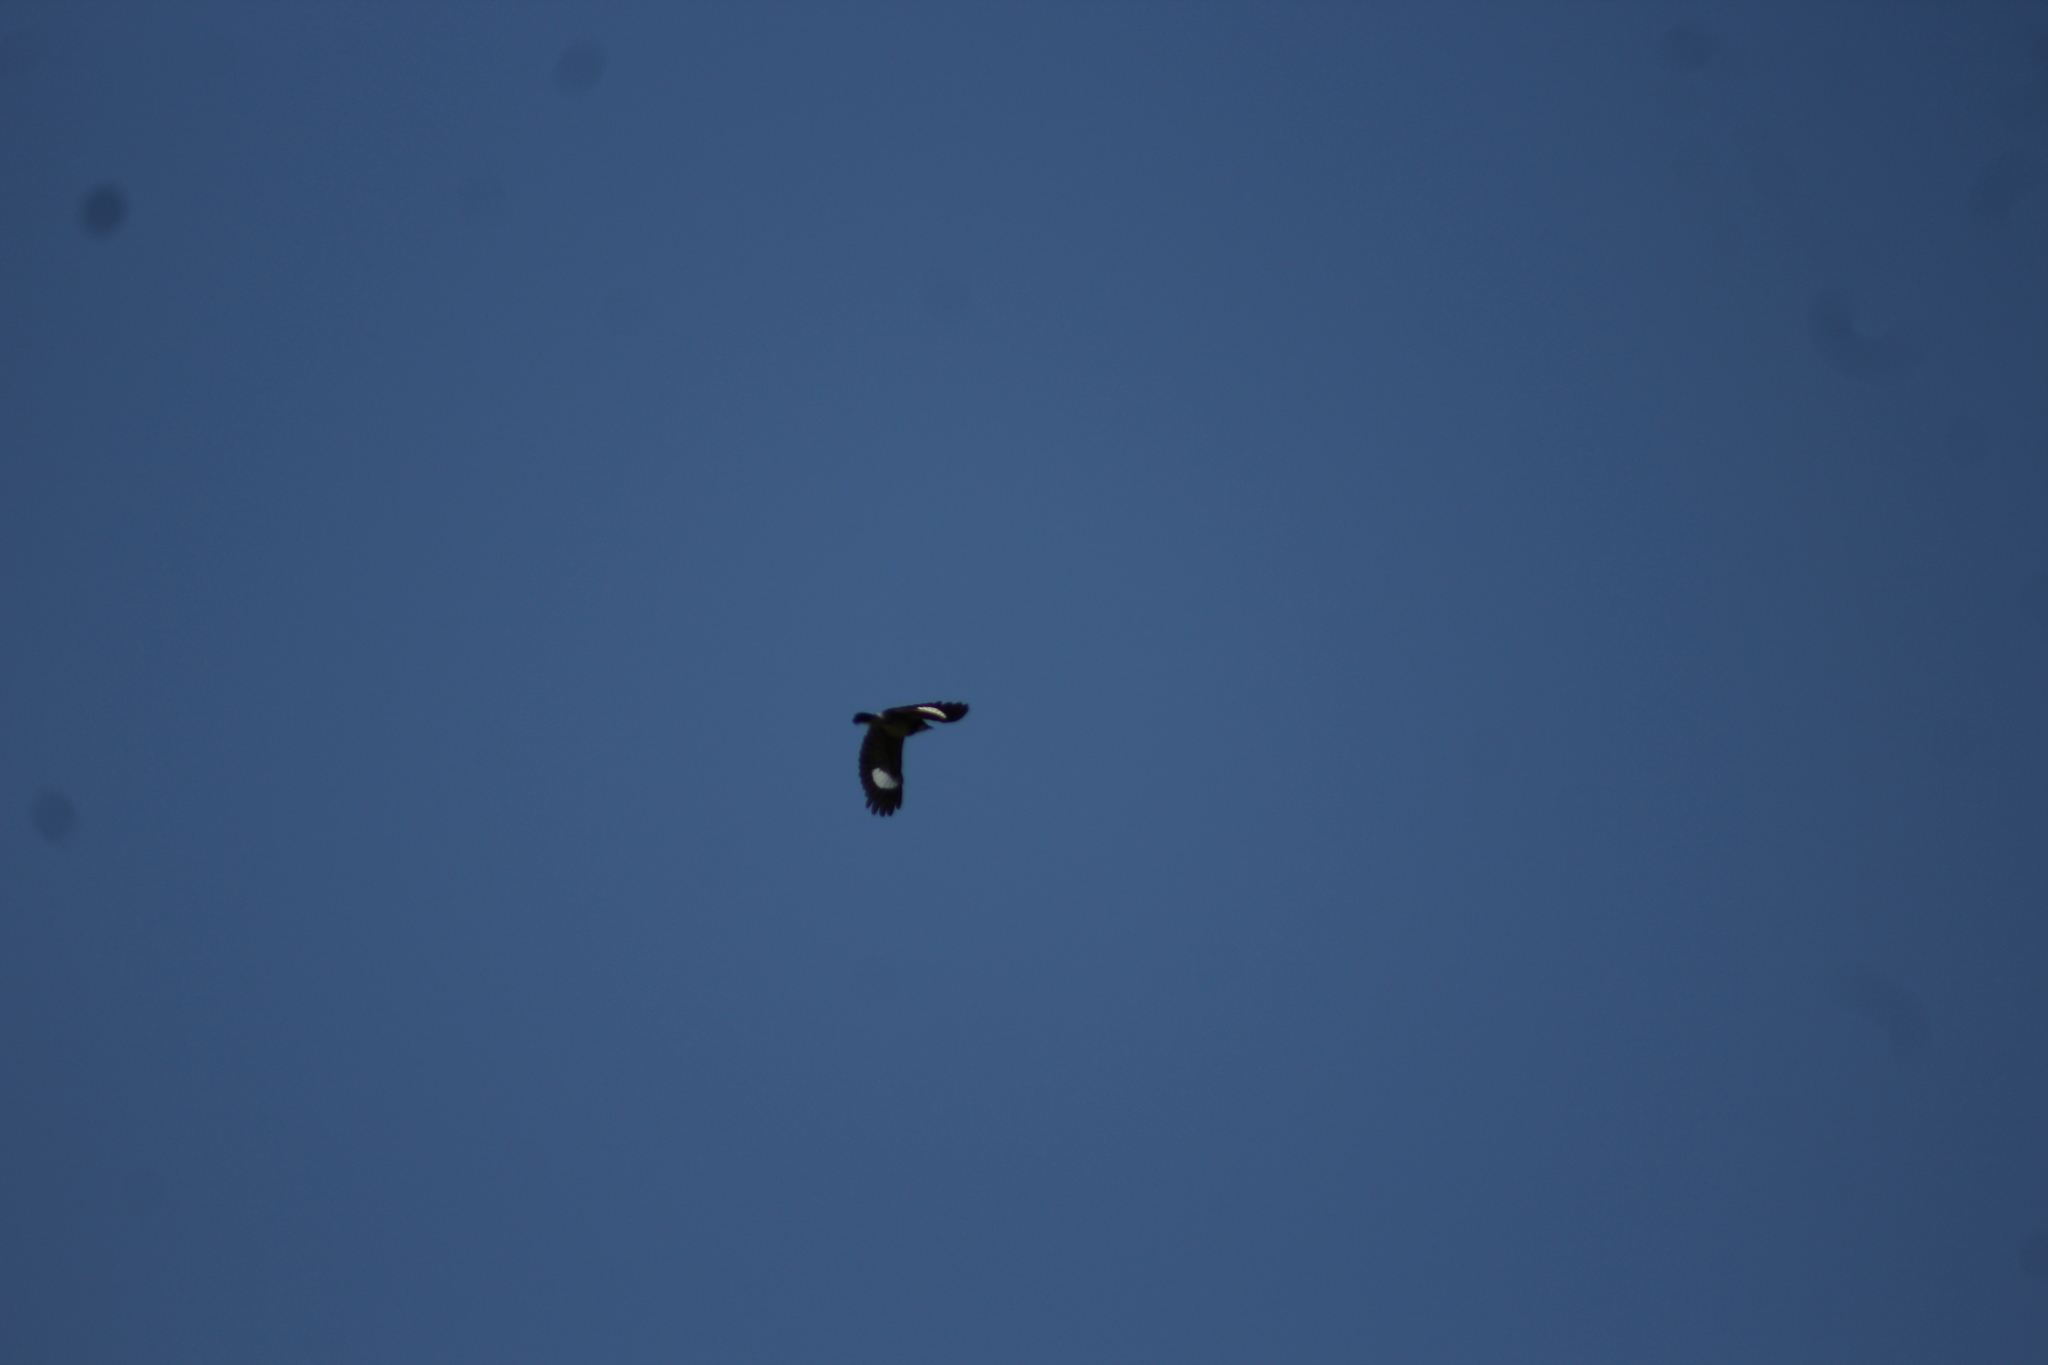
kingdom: Animalia
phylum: Chordata
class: Aves
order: Piciformes
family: Picidae
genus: Melanerpes
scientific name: Melanerpes formicivorus
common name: Acorn woodpecker
